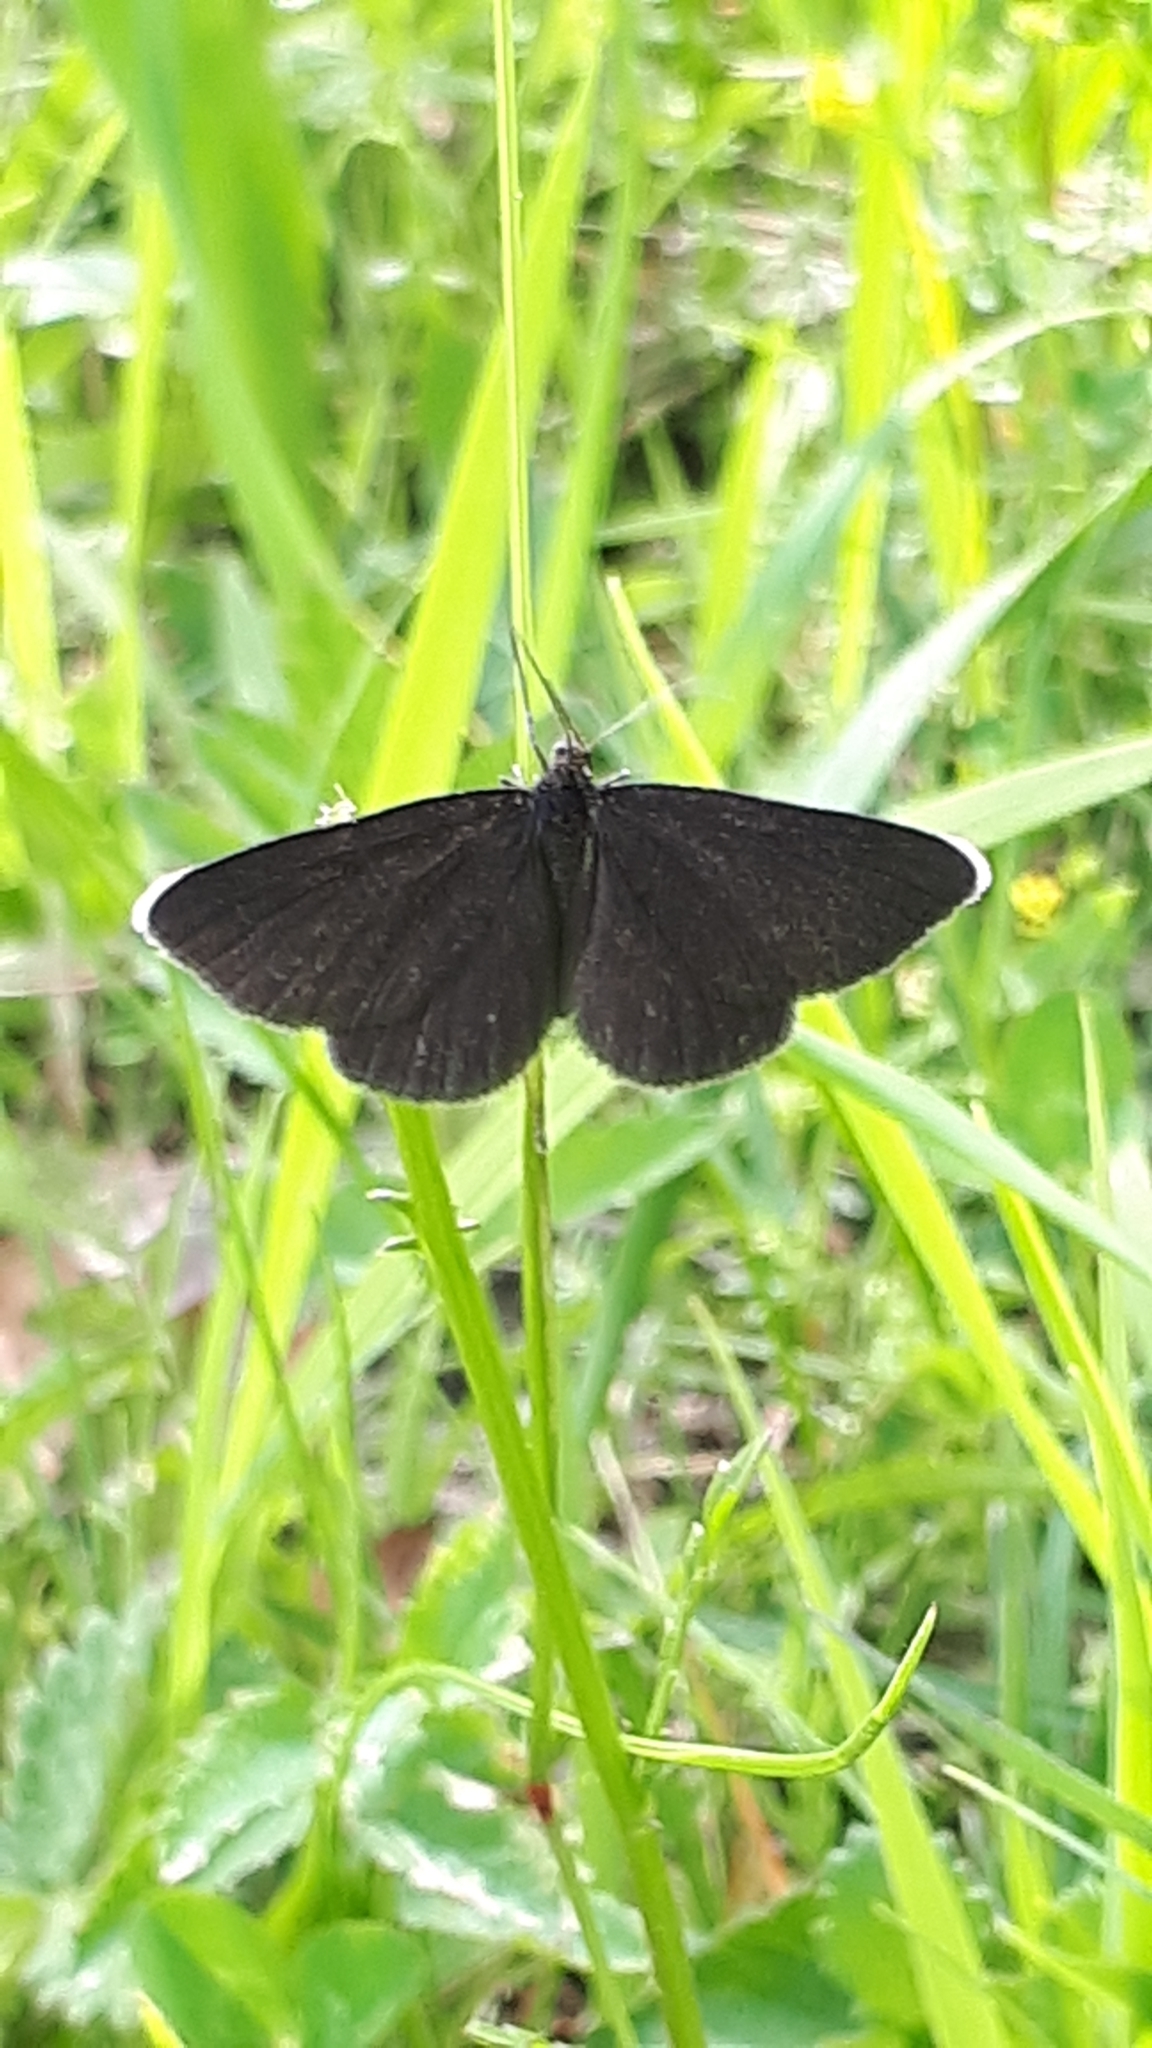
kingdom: Animalia
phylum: Arthropoda
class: Insecta
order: Lepidoptera
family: Geometridae
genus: Odezia
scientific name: Odezia atrata
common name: Chimney sweeper
